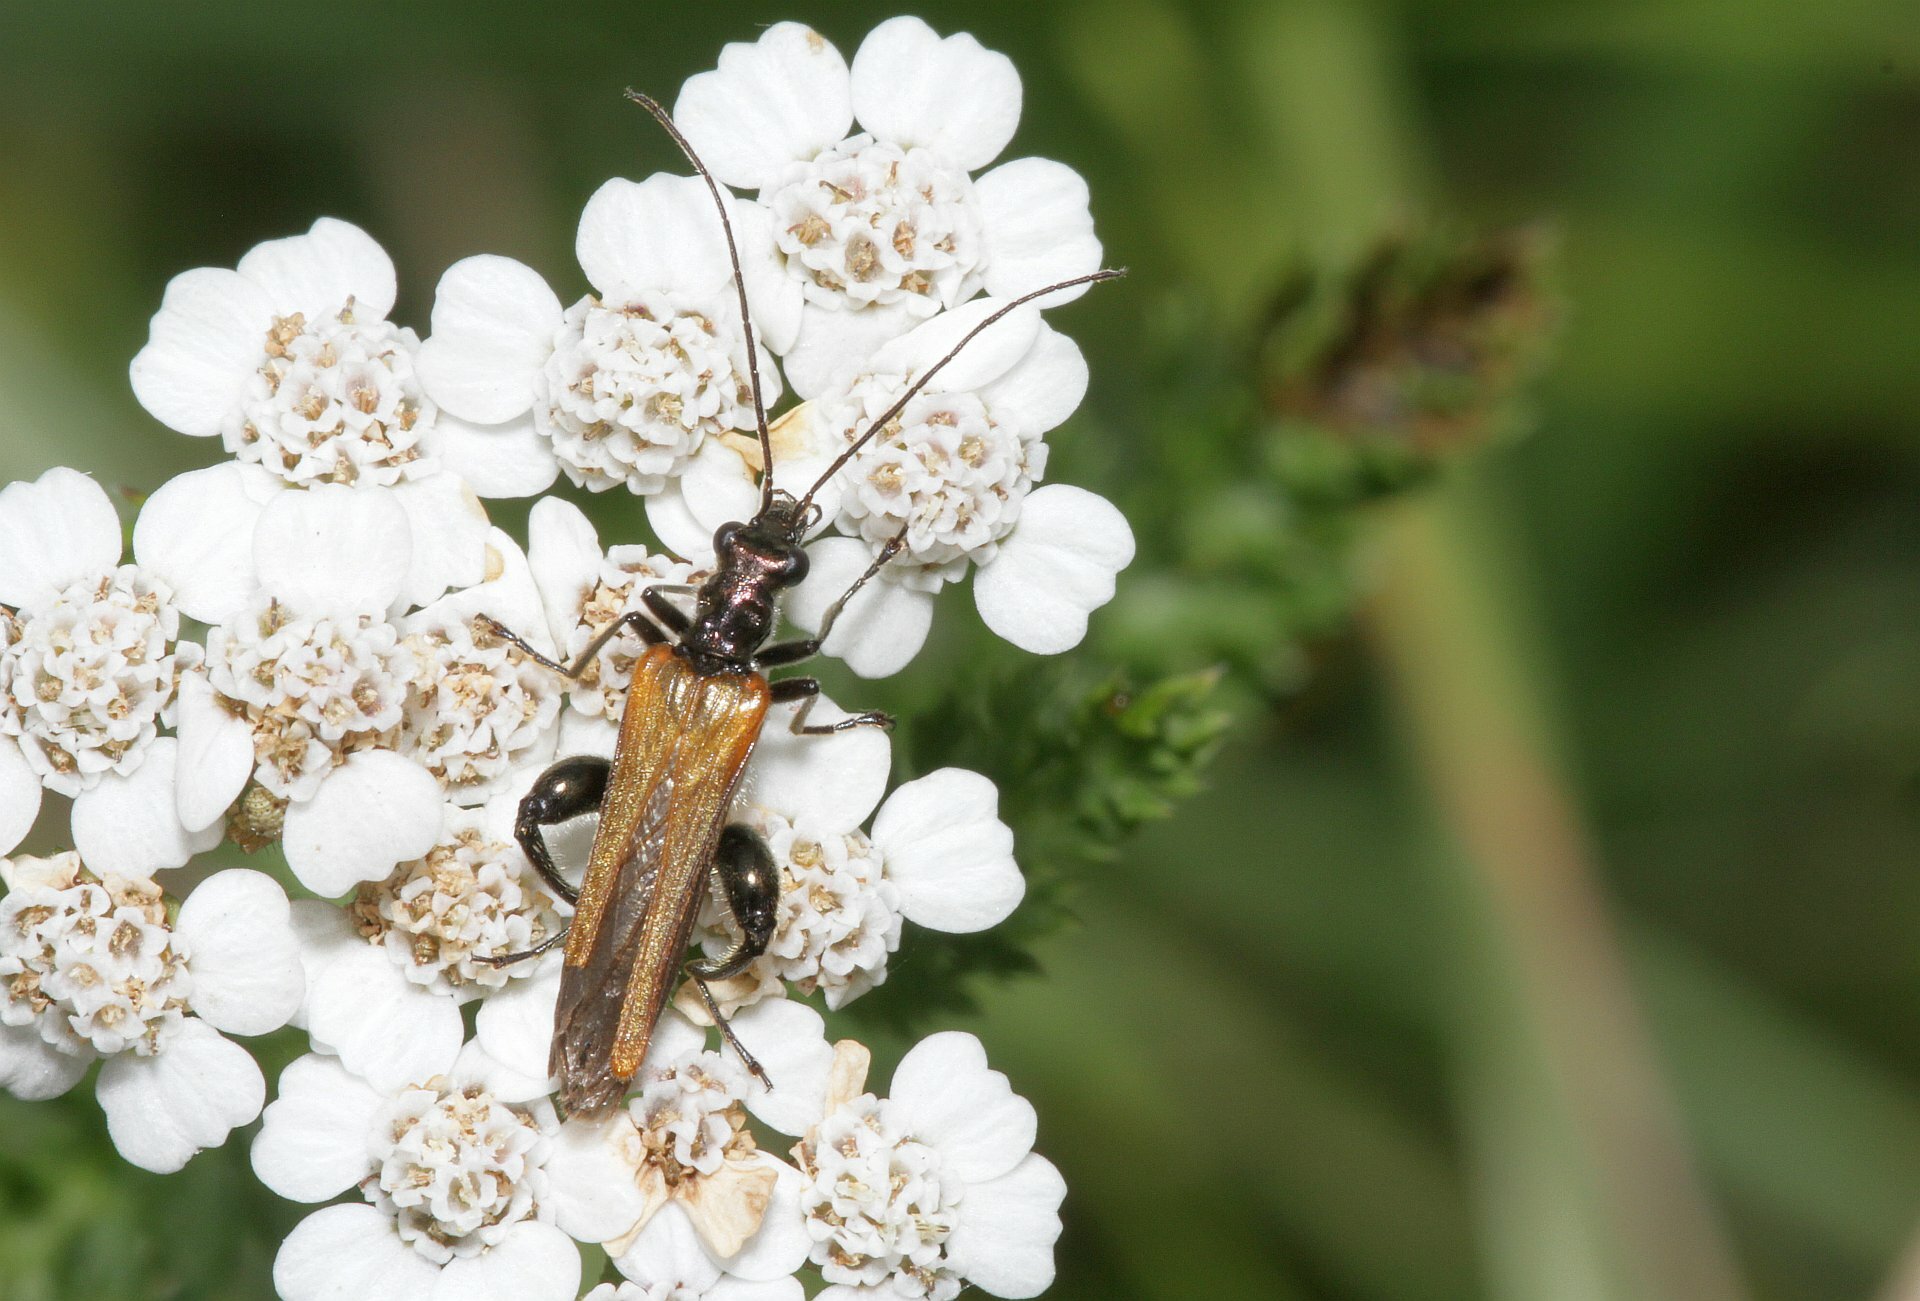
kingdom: Animalia
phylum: Arthropoda
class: Insecta
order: Coleoptera
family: Oedemeridae
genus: Oedemera
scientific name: Oedemera femorata
